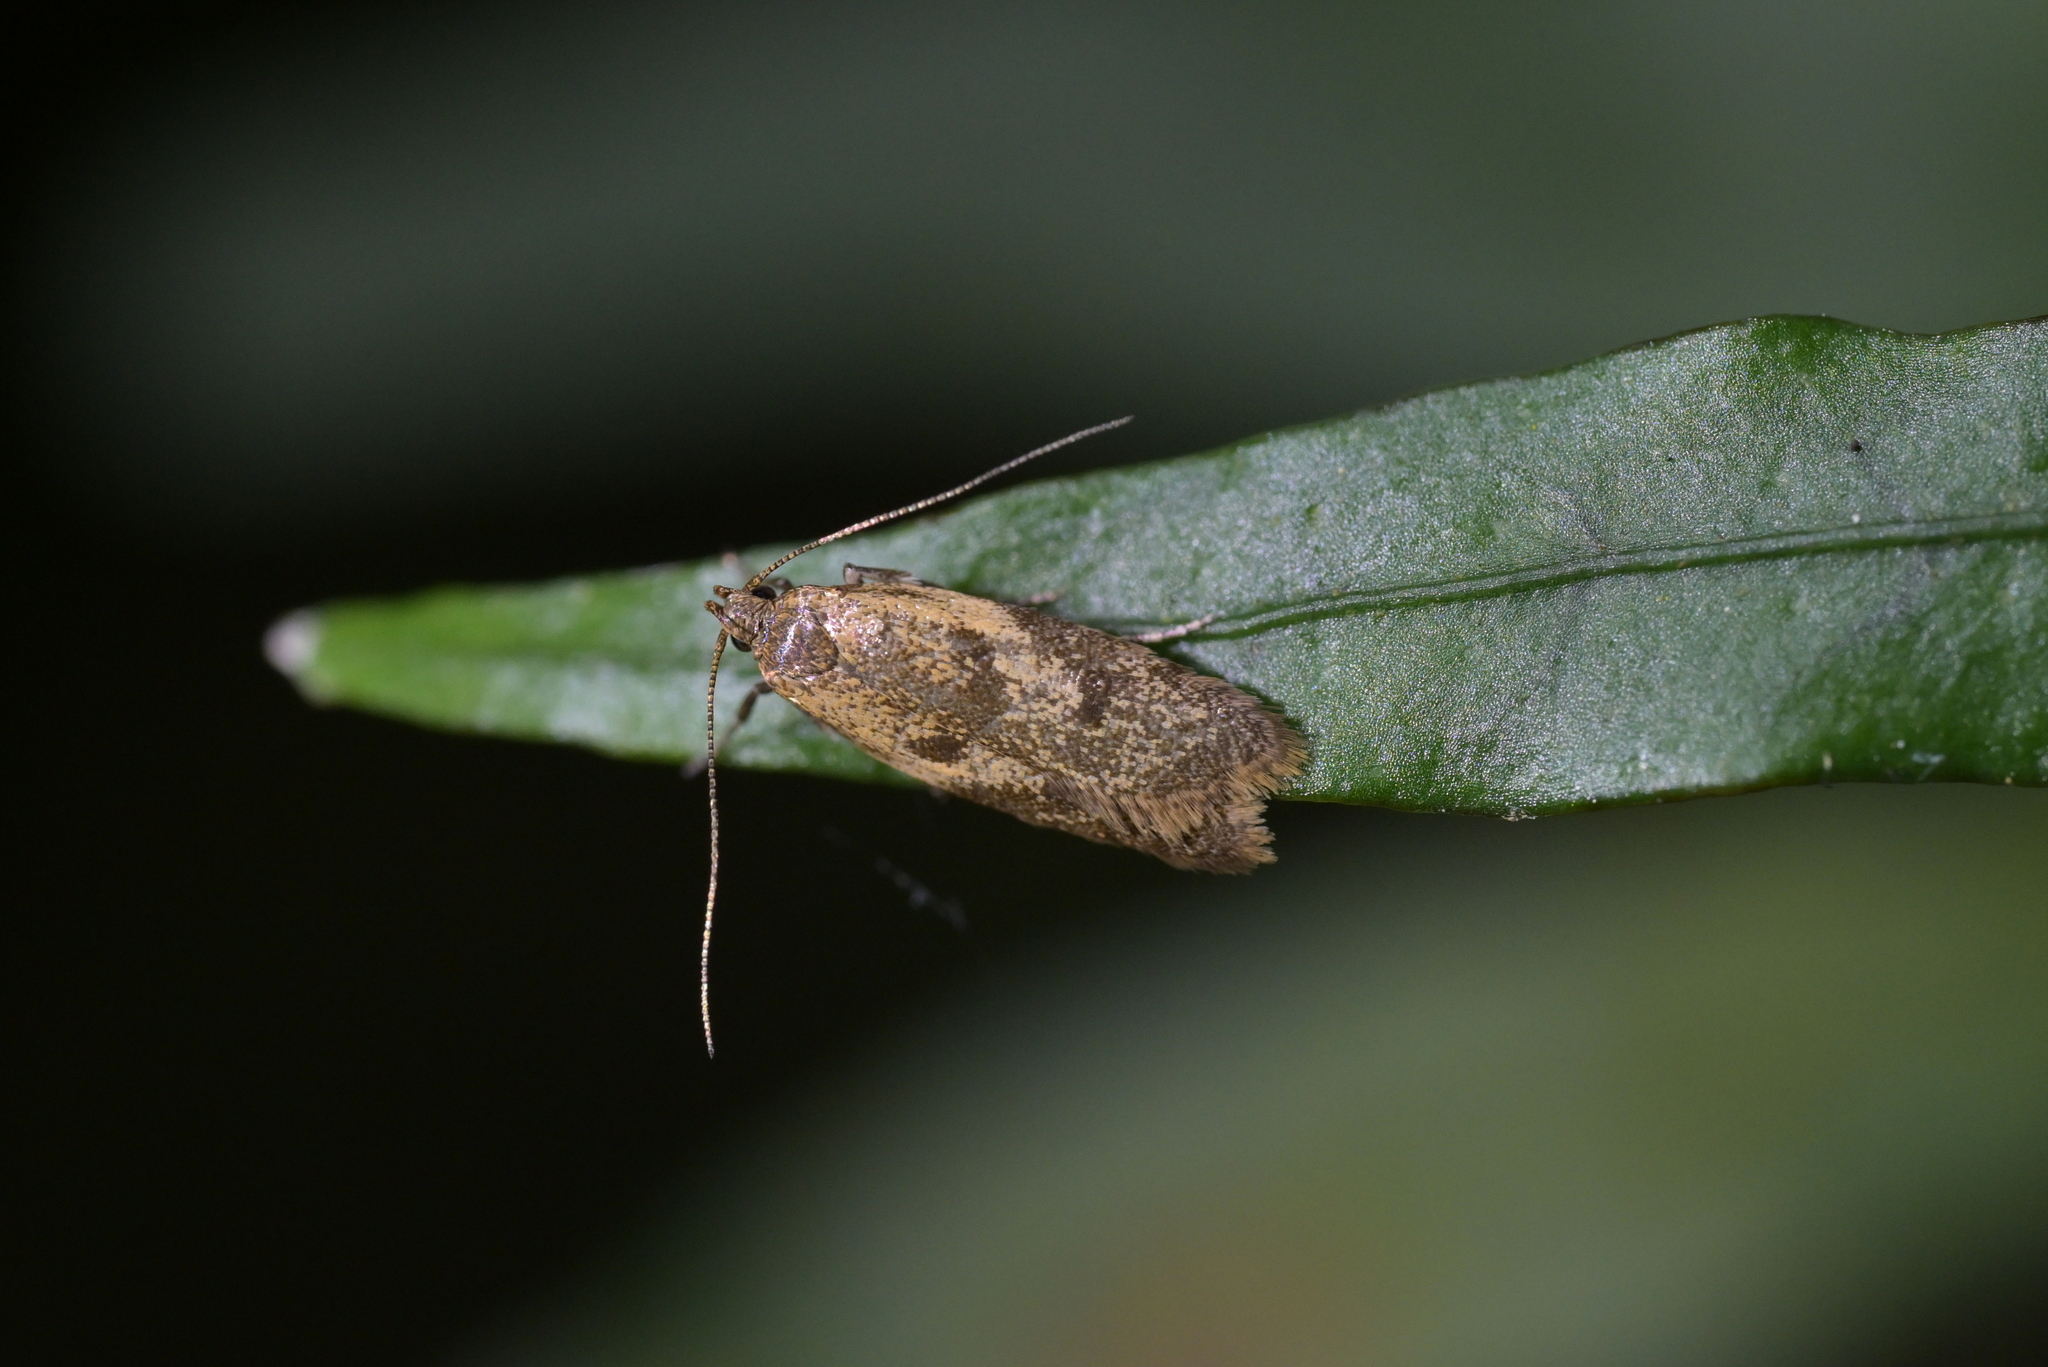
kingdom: Animalia
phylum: Arthropoda
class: Insecta
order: Lepidoptera
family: Oecophoridae
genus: Gymnobathra
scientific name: Gymnobathra tholodella
